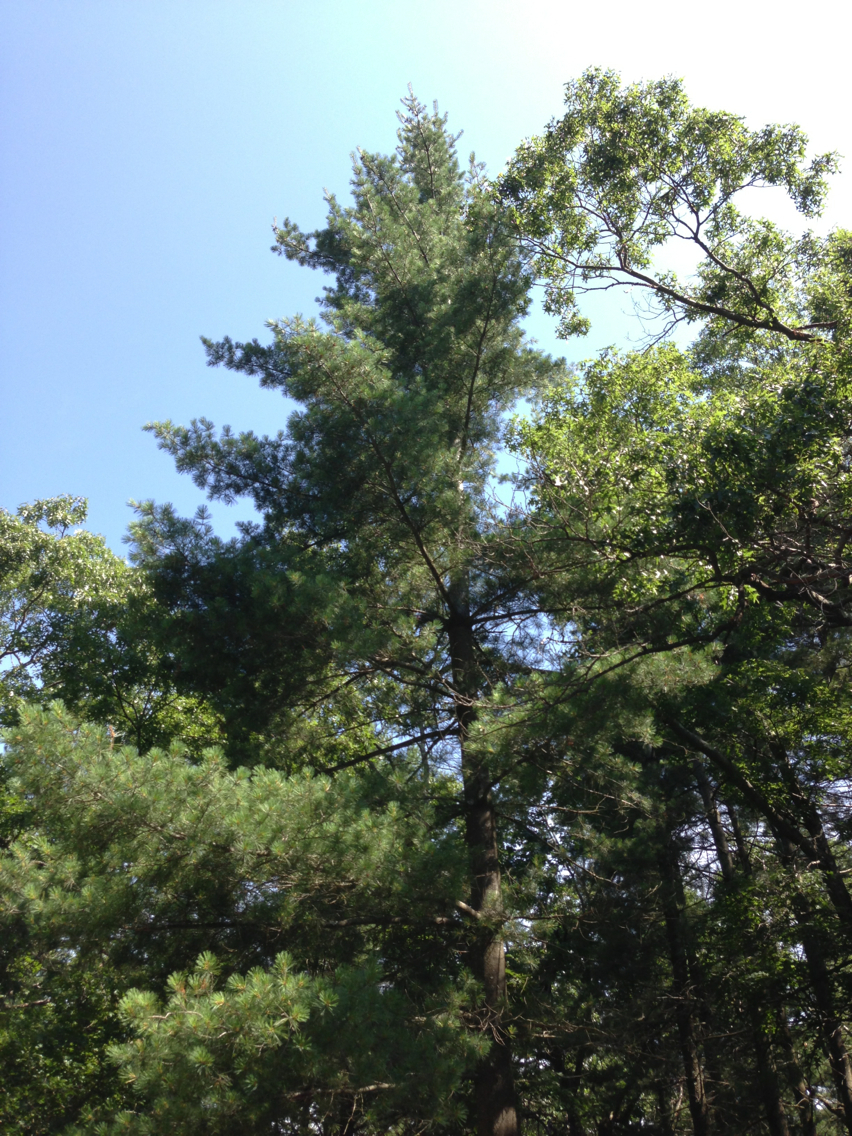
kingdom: Plantae
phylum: Tracheophyta
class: Pinopsida
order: Pinales
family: Pinaceae
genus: Pinus
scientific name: Pinus strobus
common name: Weymouth pine
